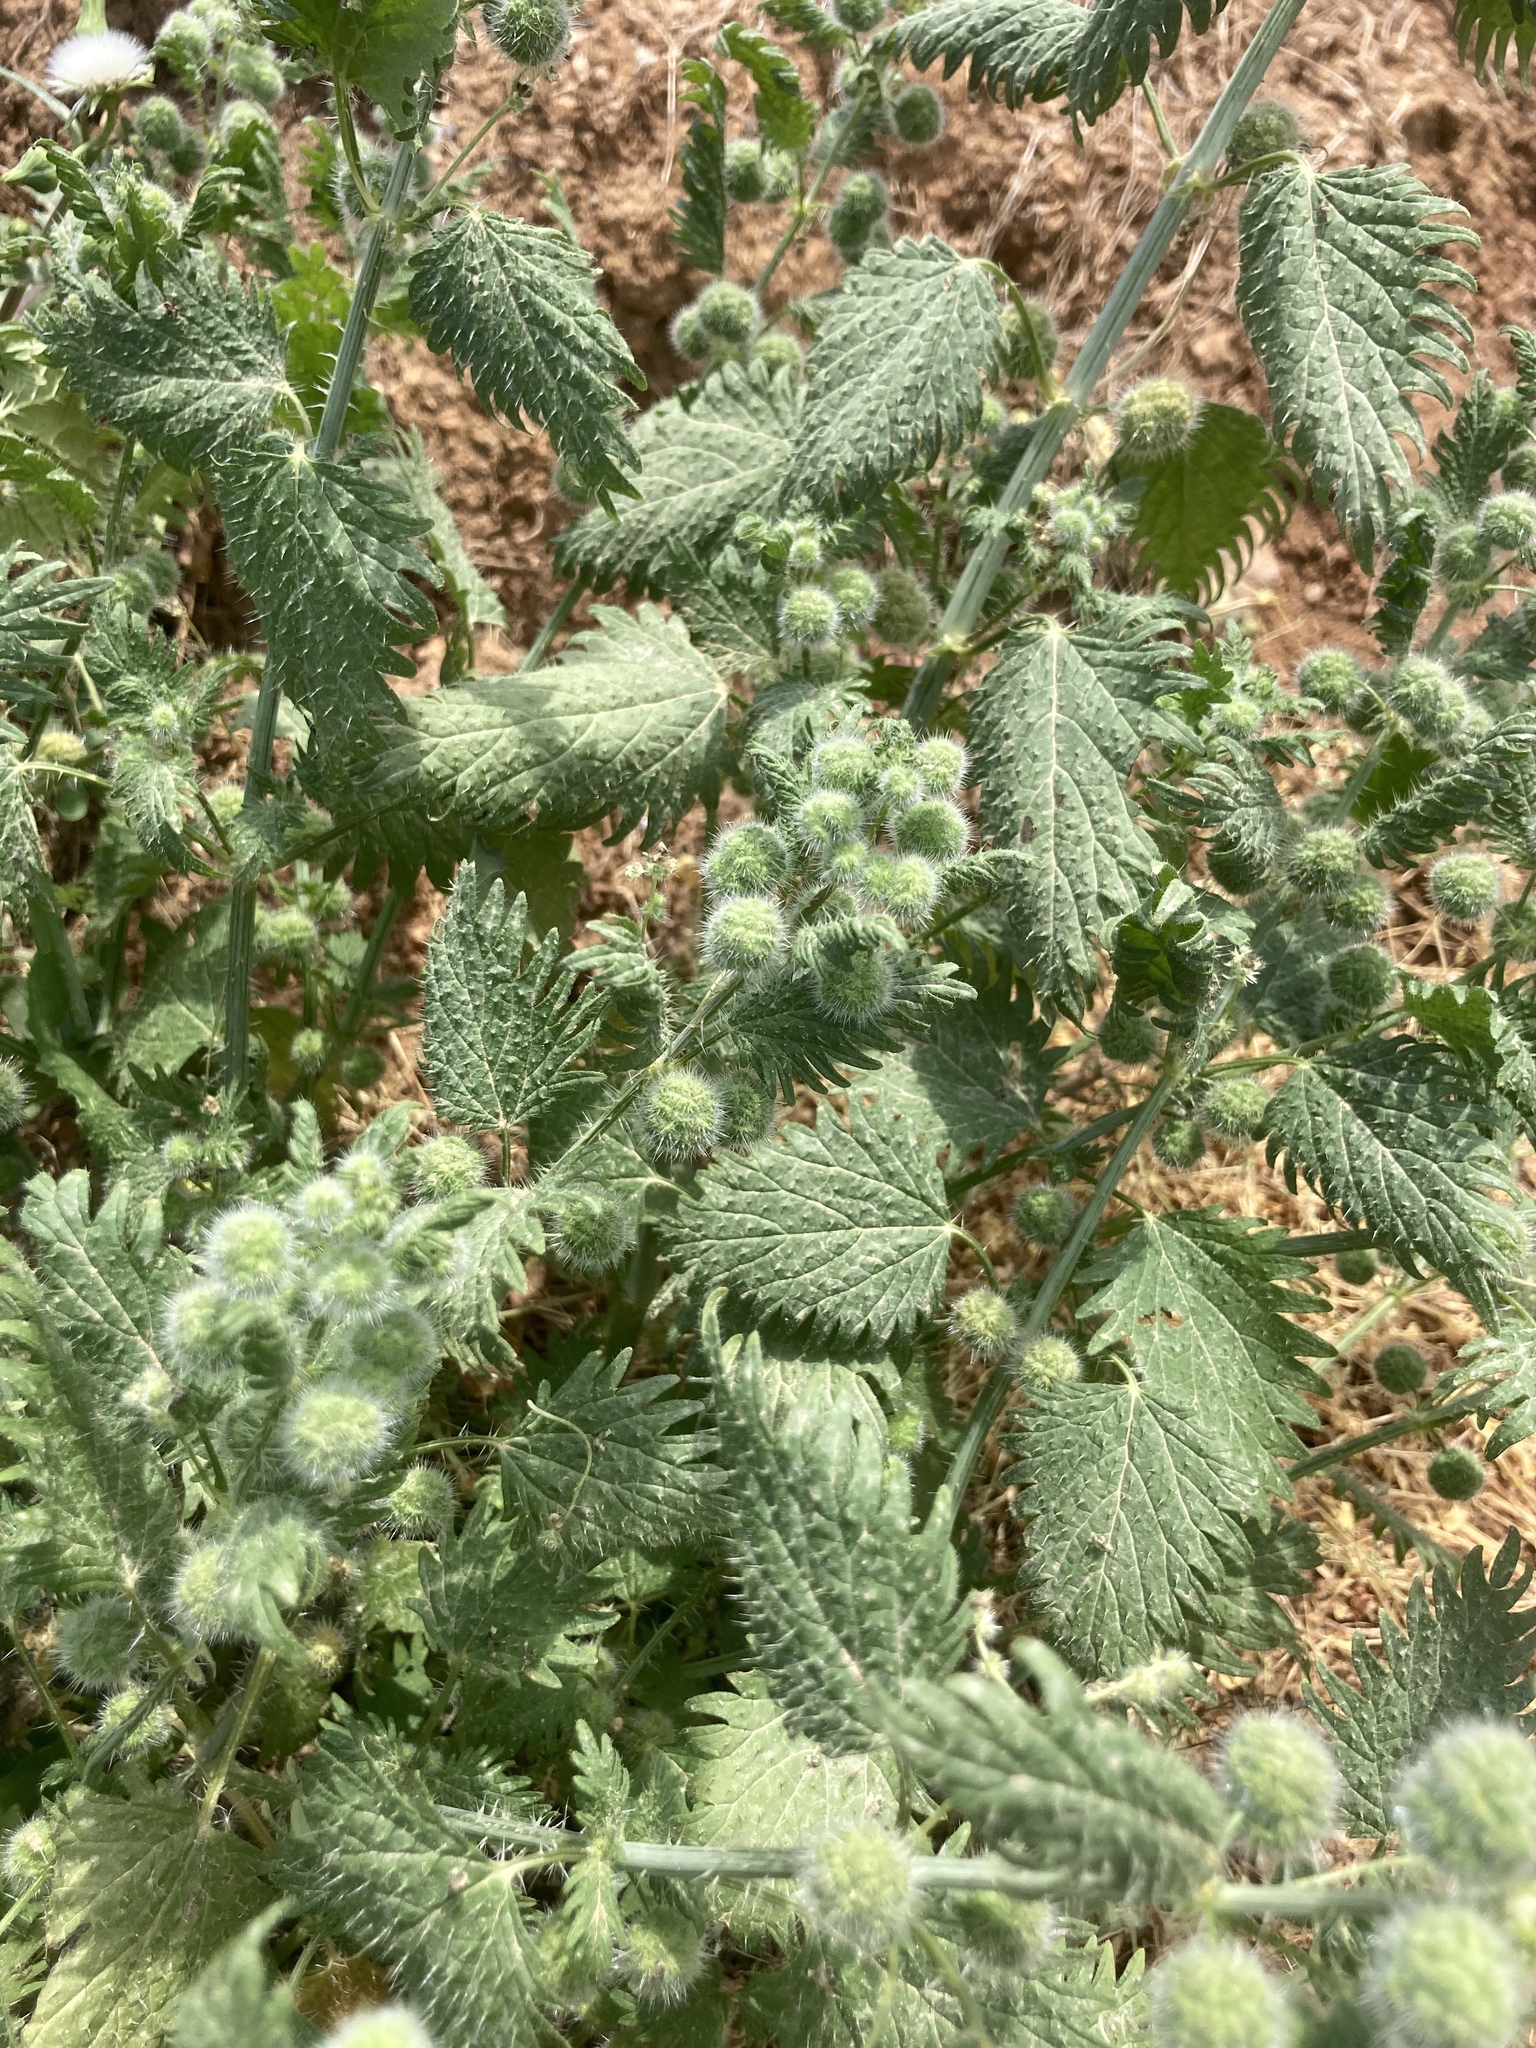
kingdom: Plantae
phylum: Tracheophyta
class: Magnoliopsida
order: Rosales
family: Urticaceae
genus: Urtica
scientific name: Urtica pilulifera
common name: Roman nettle
